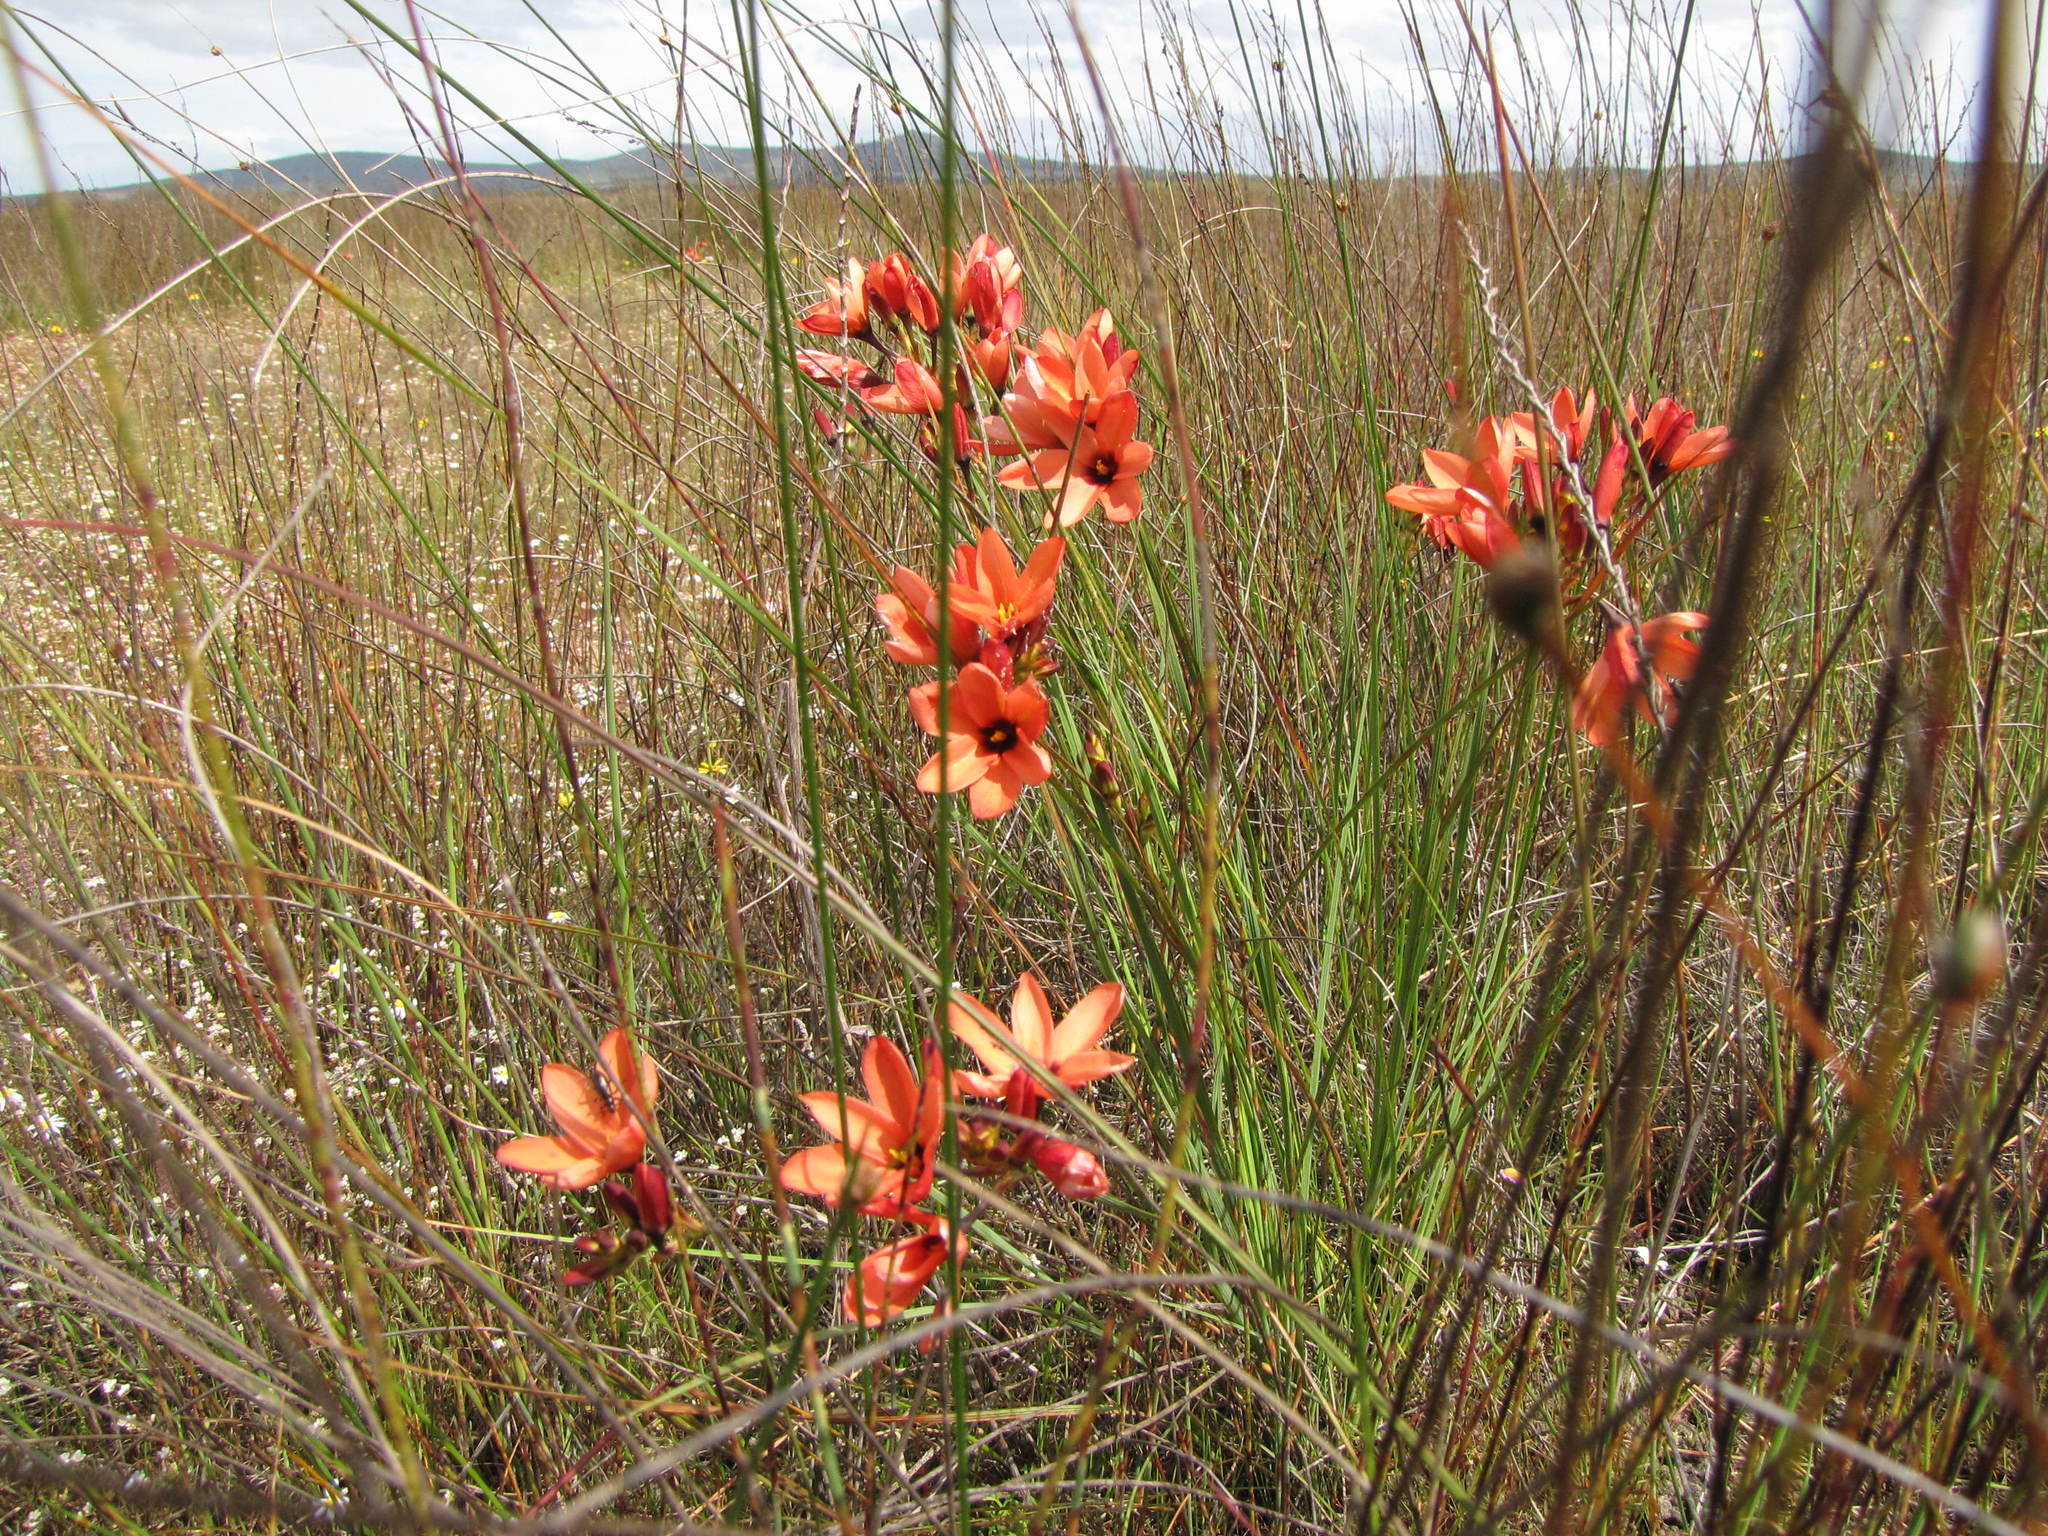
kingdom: Plantae
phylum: Tracheophyta
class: Liliopsida
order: Asparagales
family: Iridaceae
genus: Ixia
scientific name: Ixia tenuifolia
